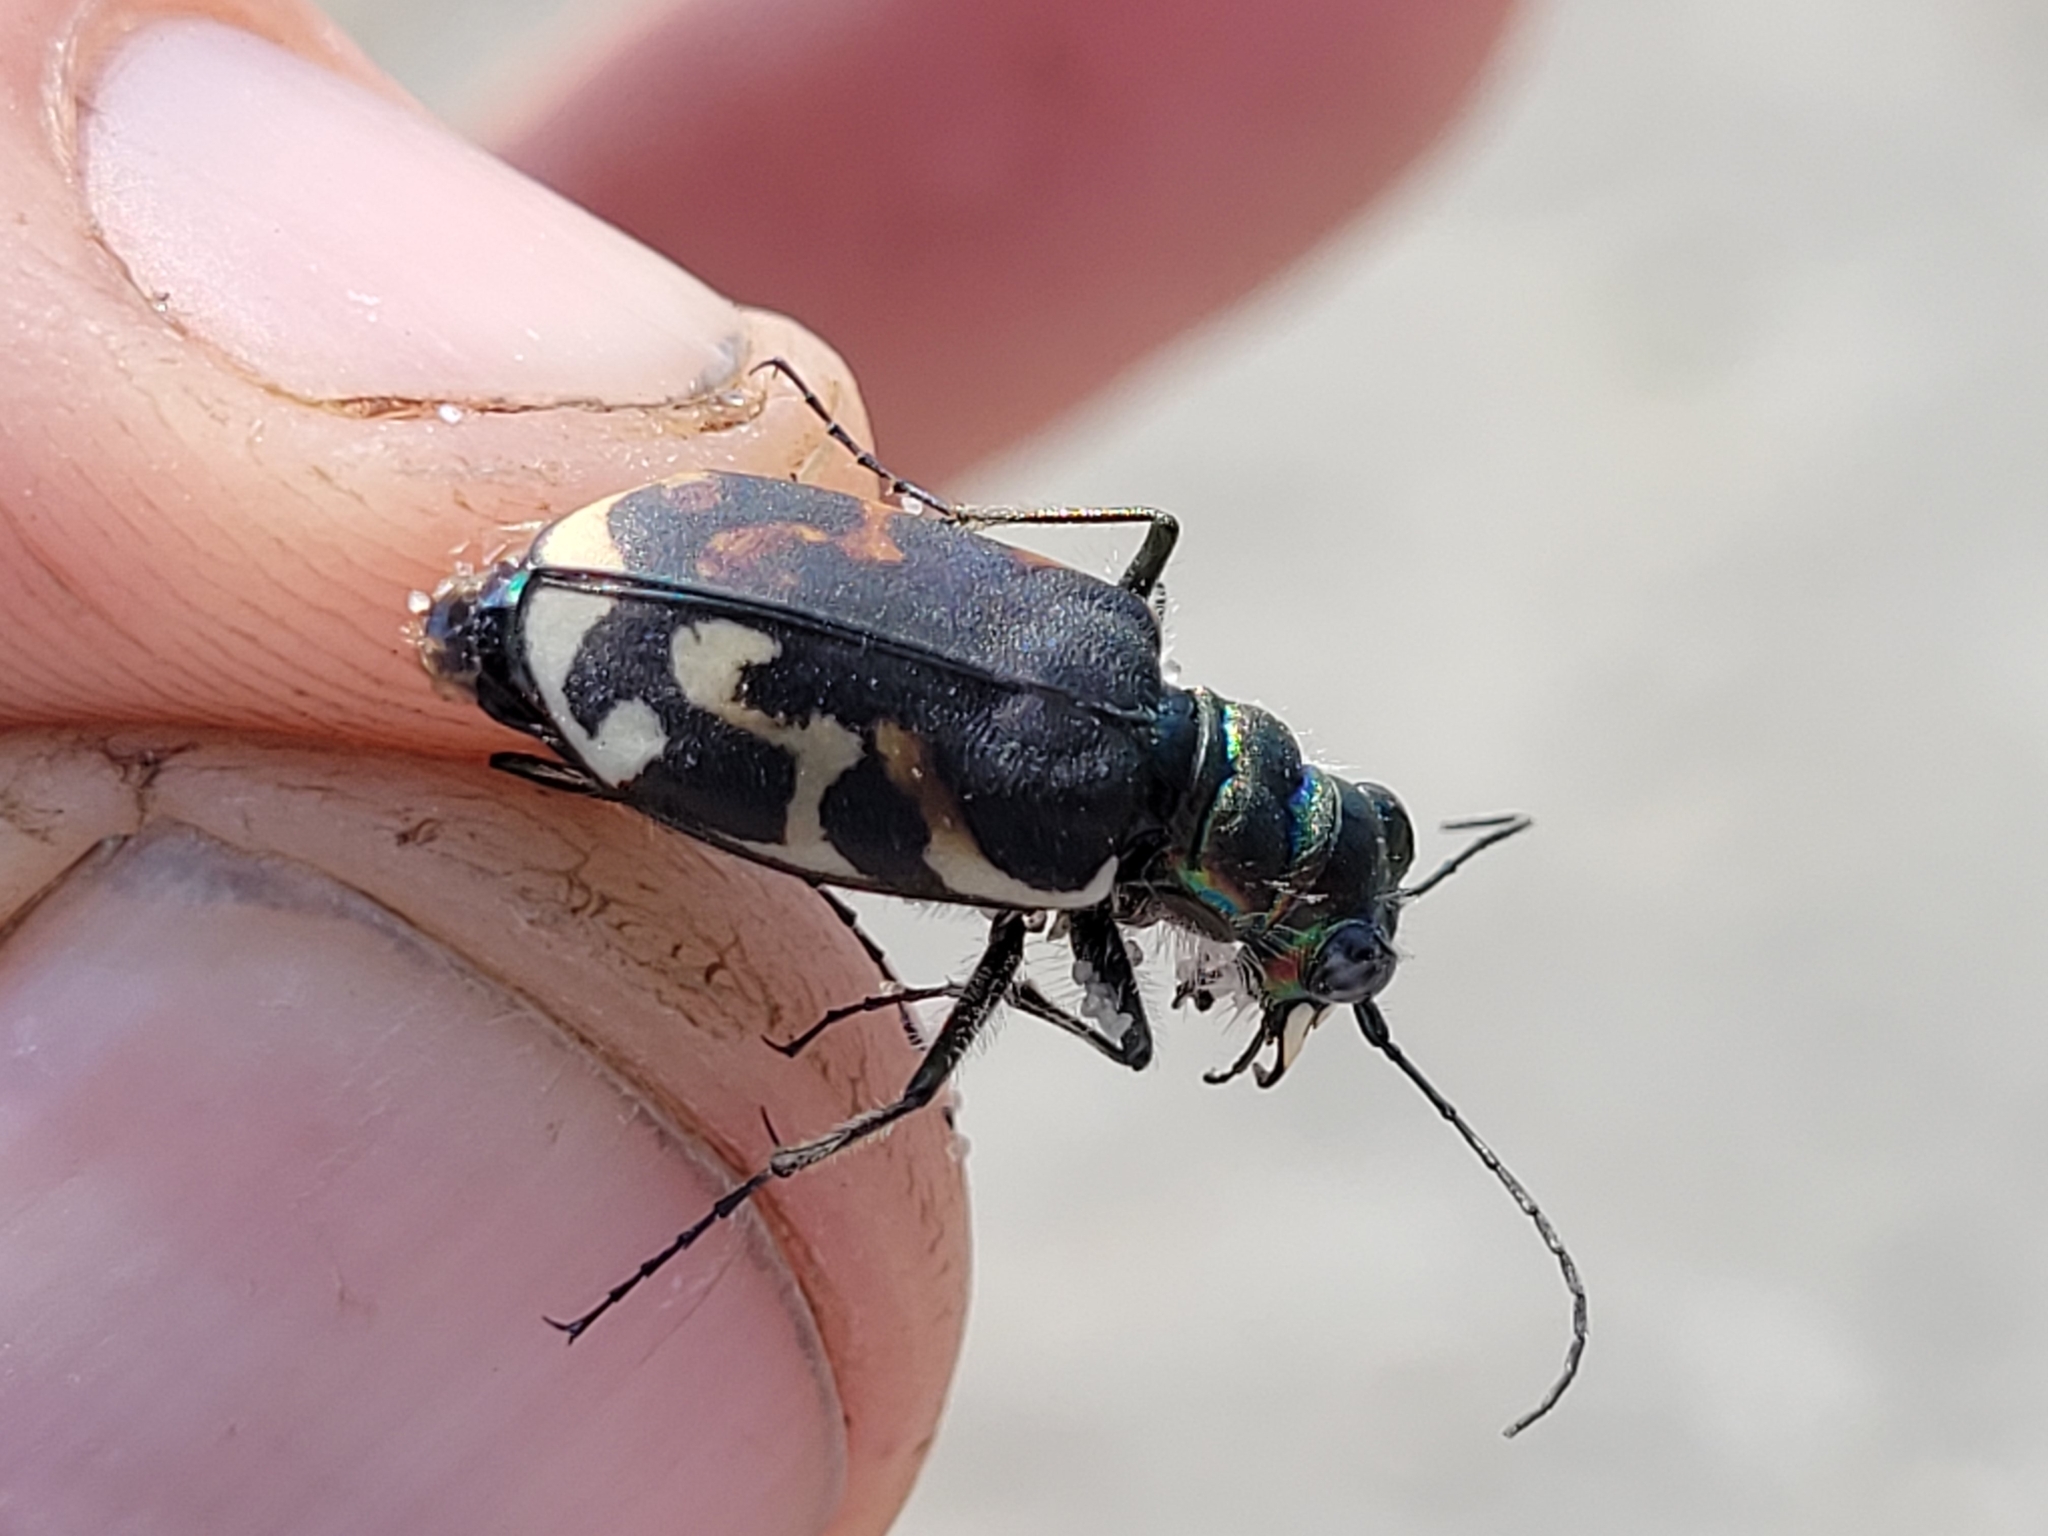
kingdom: Animalia
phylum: Arthropoda
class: Insecta
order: Coleoptera
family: Carabidae
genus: Cicindela
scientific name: Cicindela tranquebarica
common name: Oblique-lined tiger beetle
